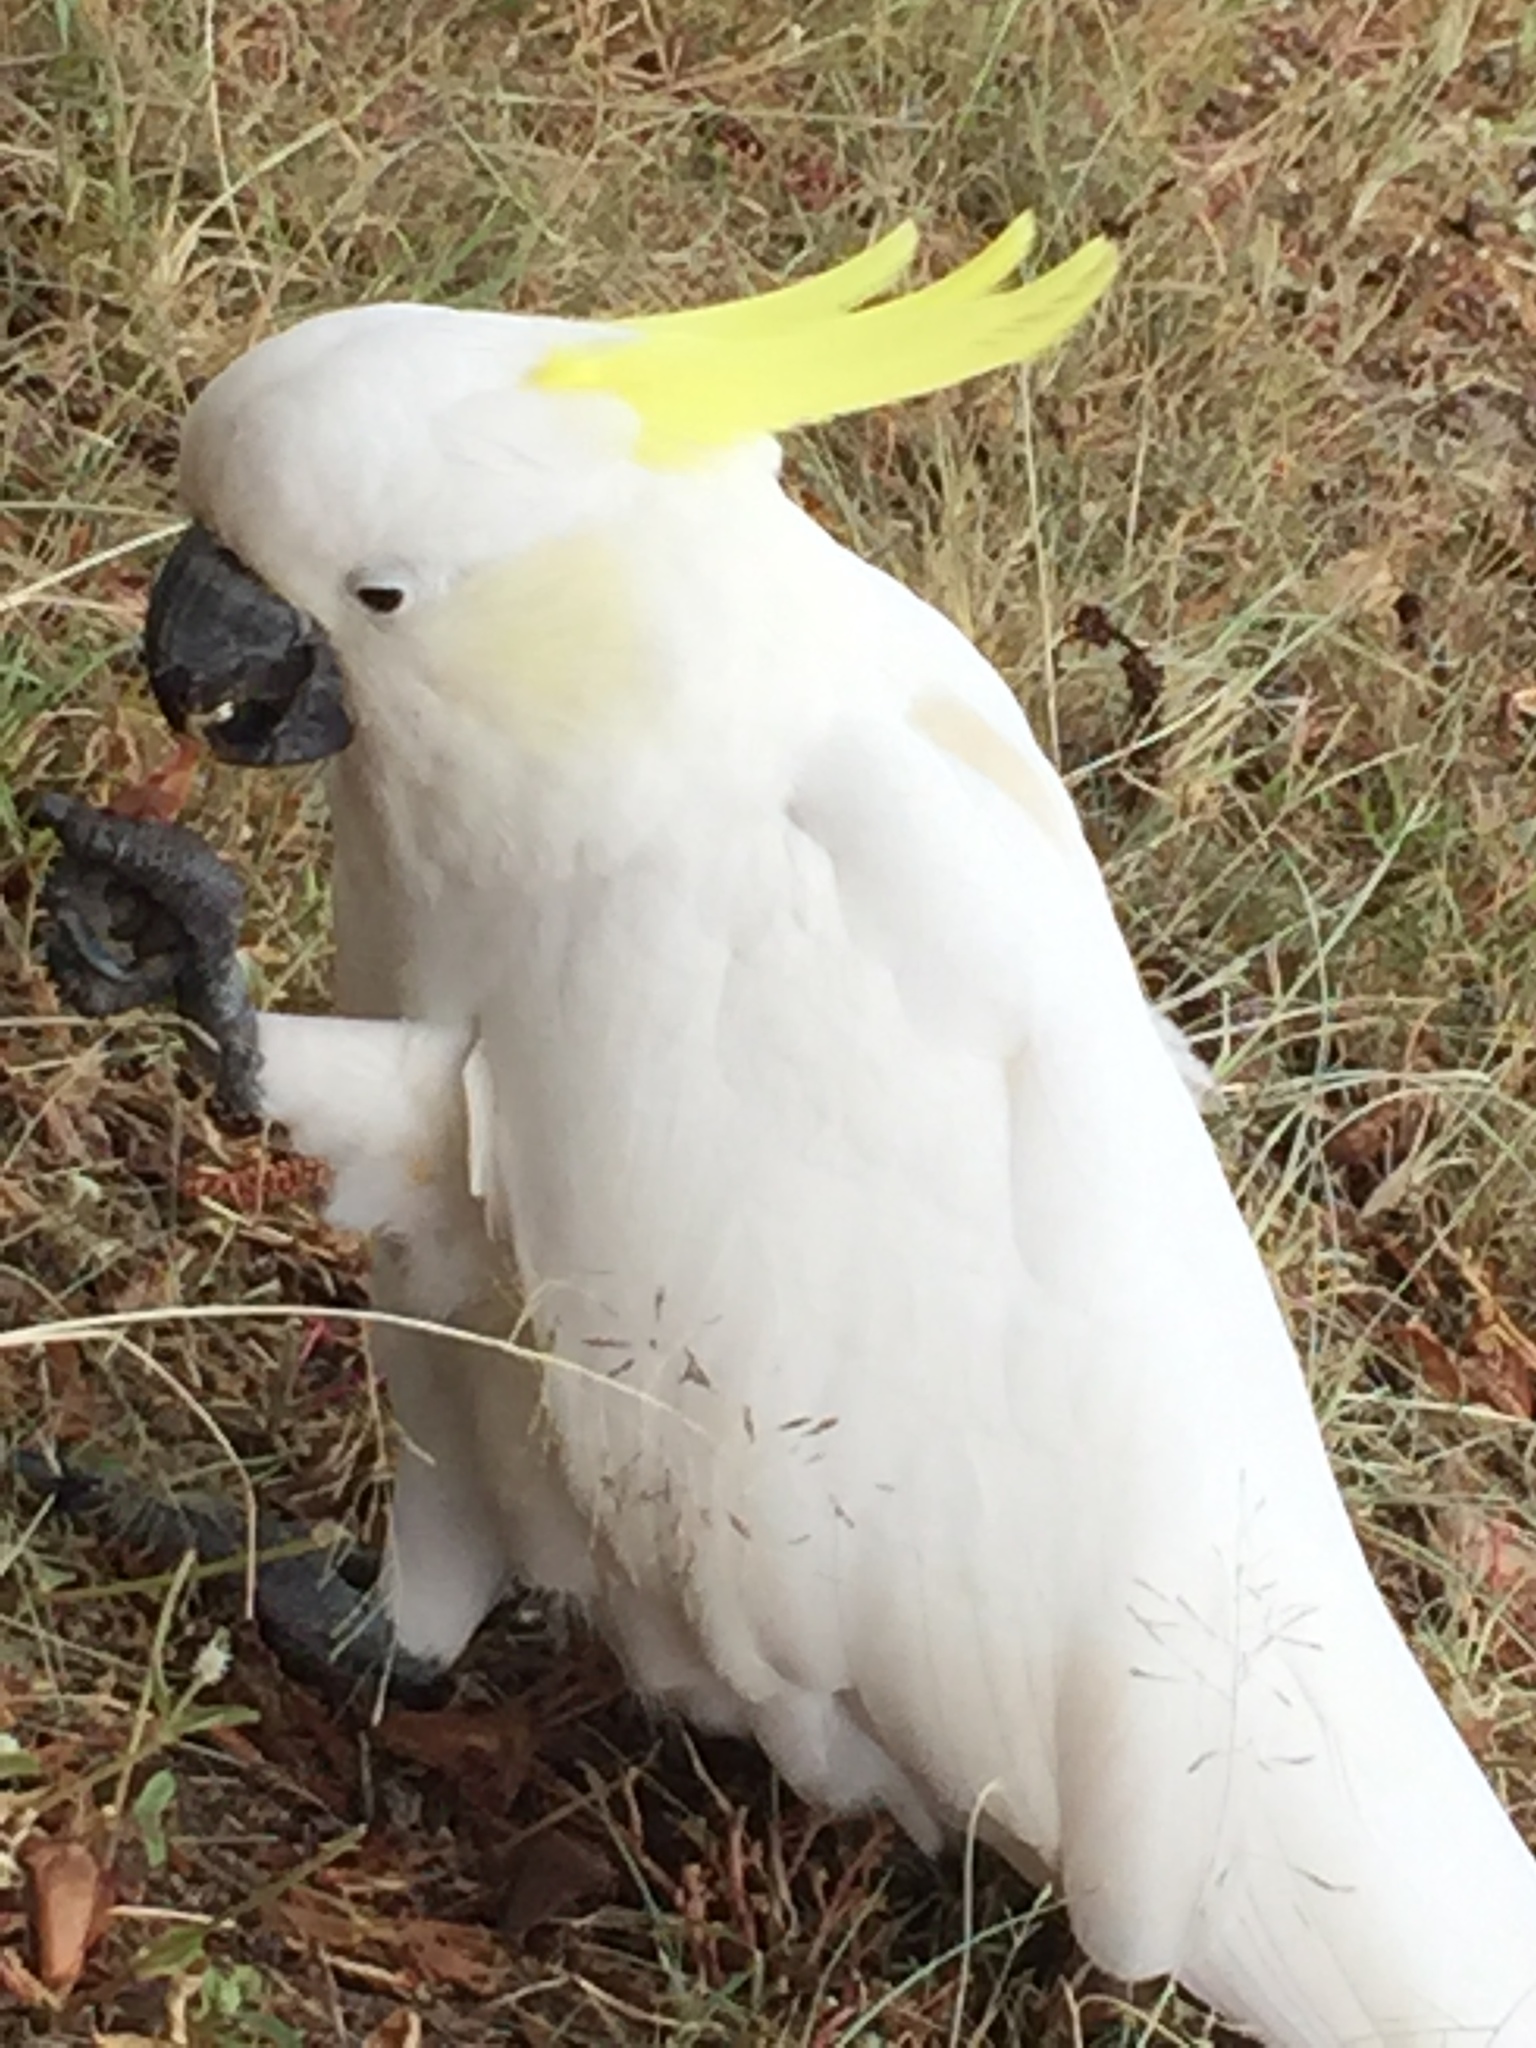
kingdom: Animalia
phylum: Chordata
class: Aves
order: Psittaciformes
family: Psittacidae
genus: Cacatua
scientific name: Cacatua galerita
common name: Sulphur-crested cockatoo
